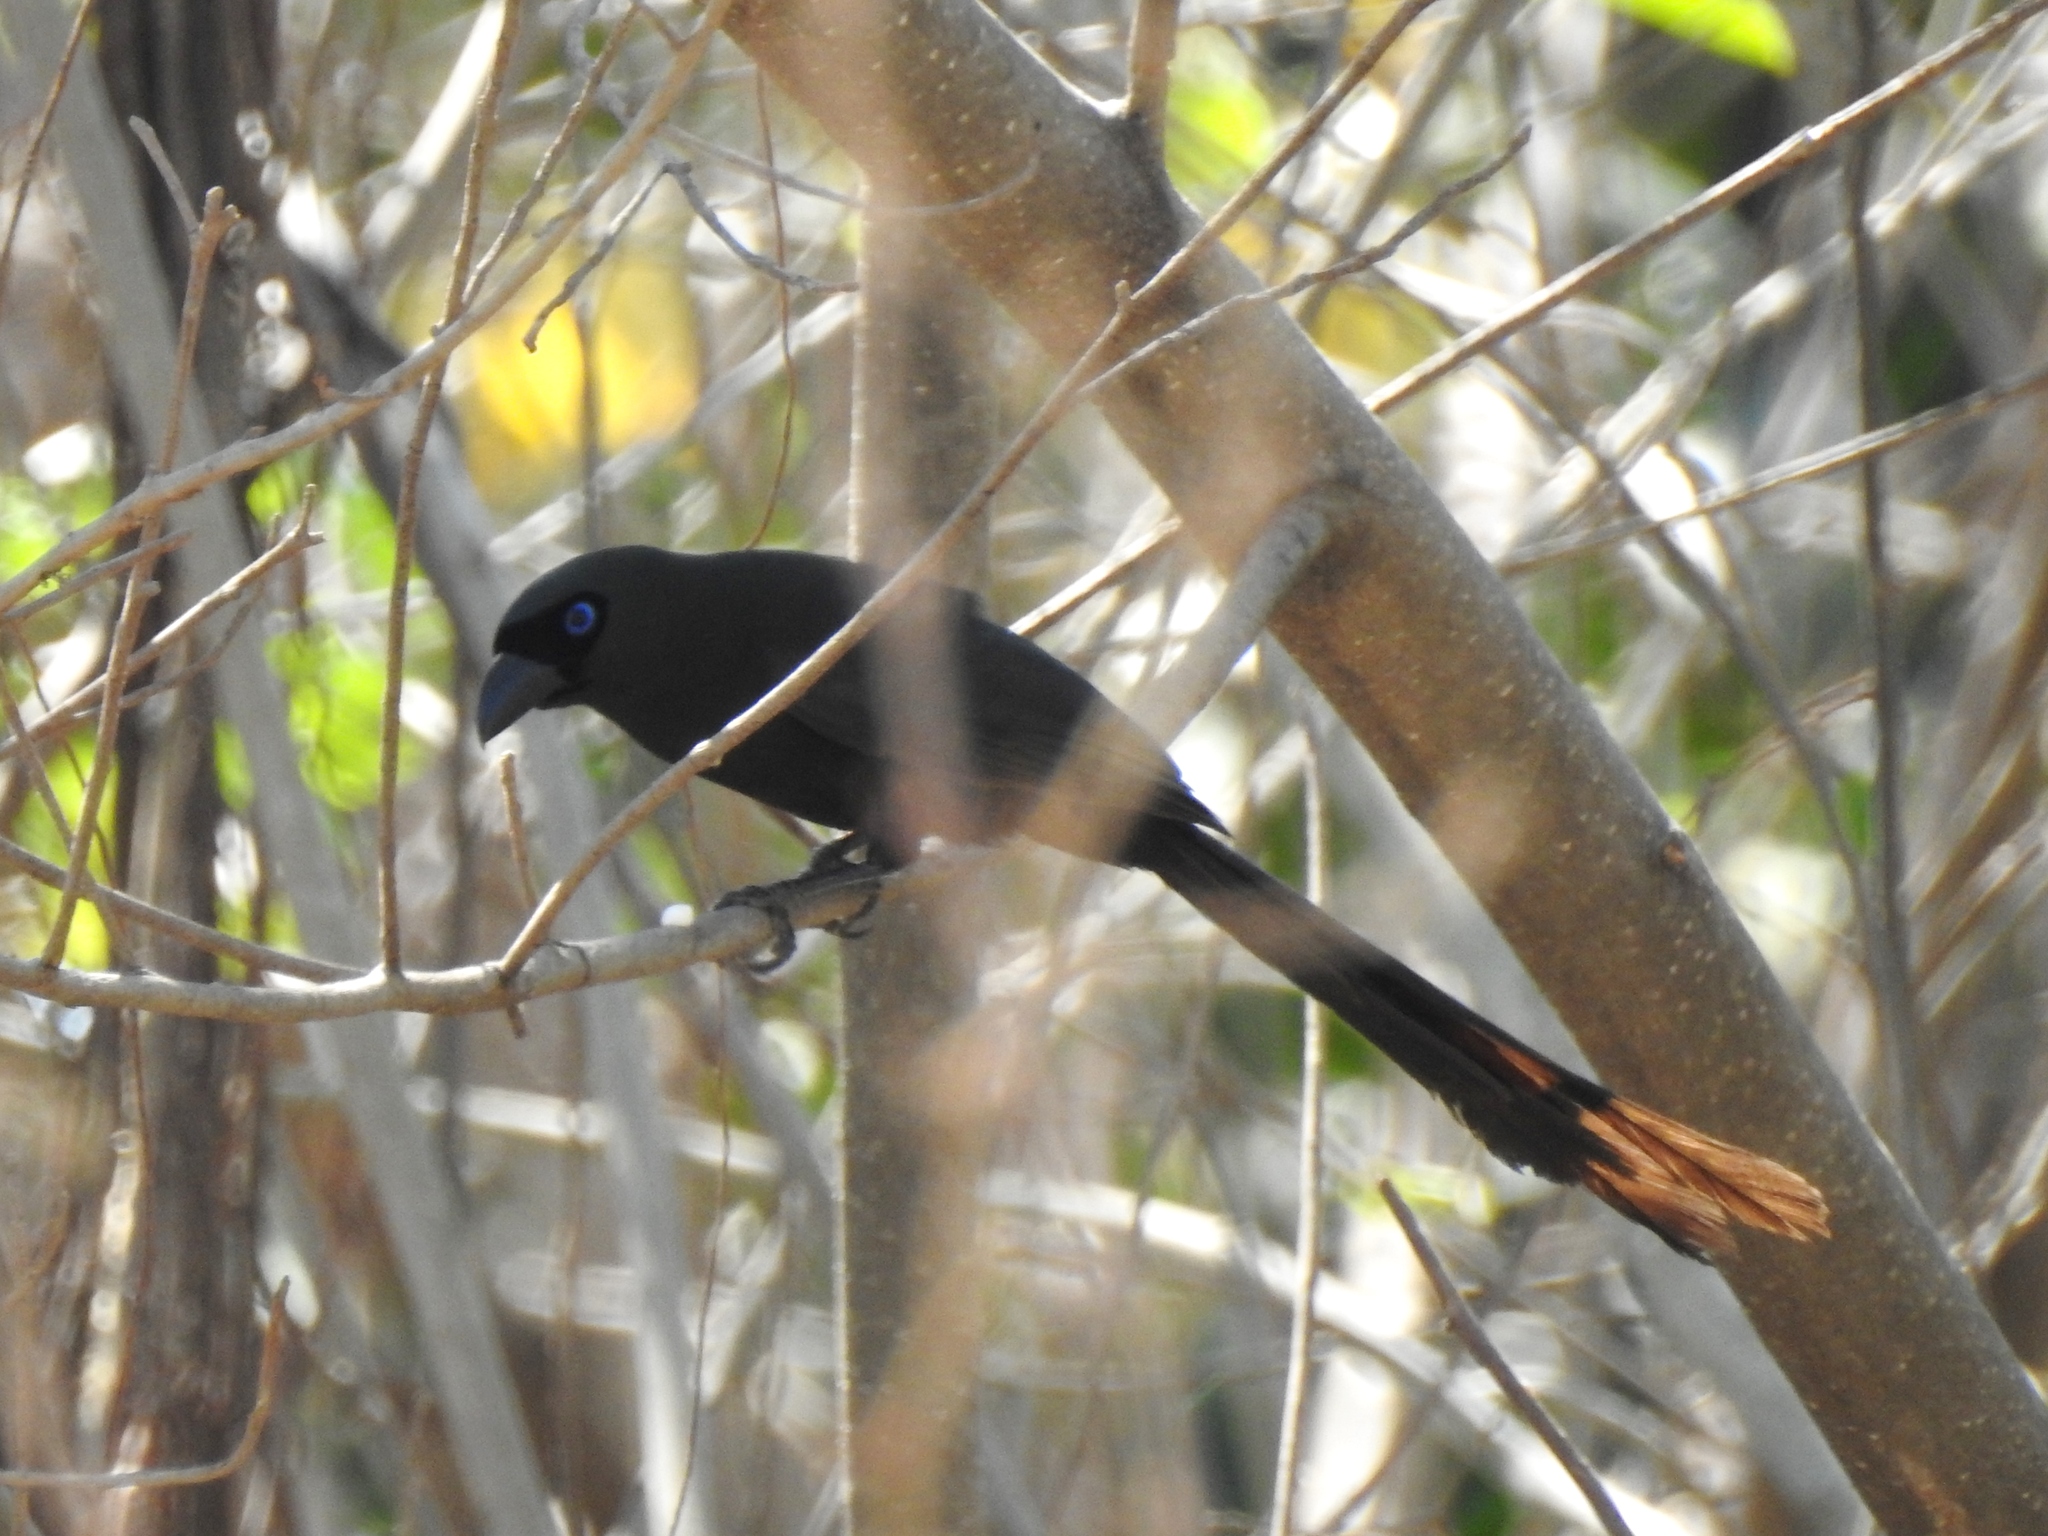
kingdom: Animalia
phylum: Chordata
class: Aves
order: Passeriformes
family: Corvidae
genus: Crypsirina
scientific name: Crypsirina temia
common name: Racket-tailed treepie
